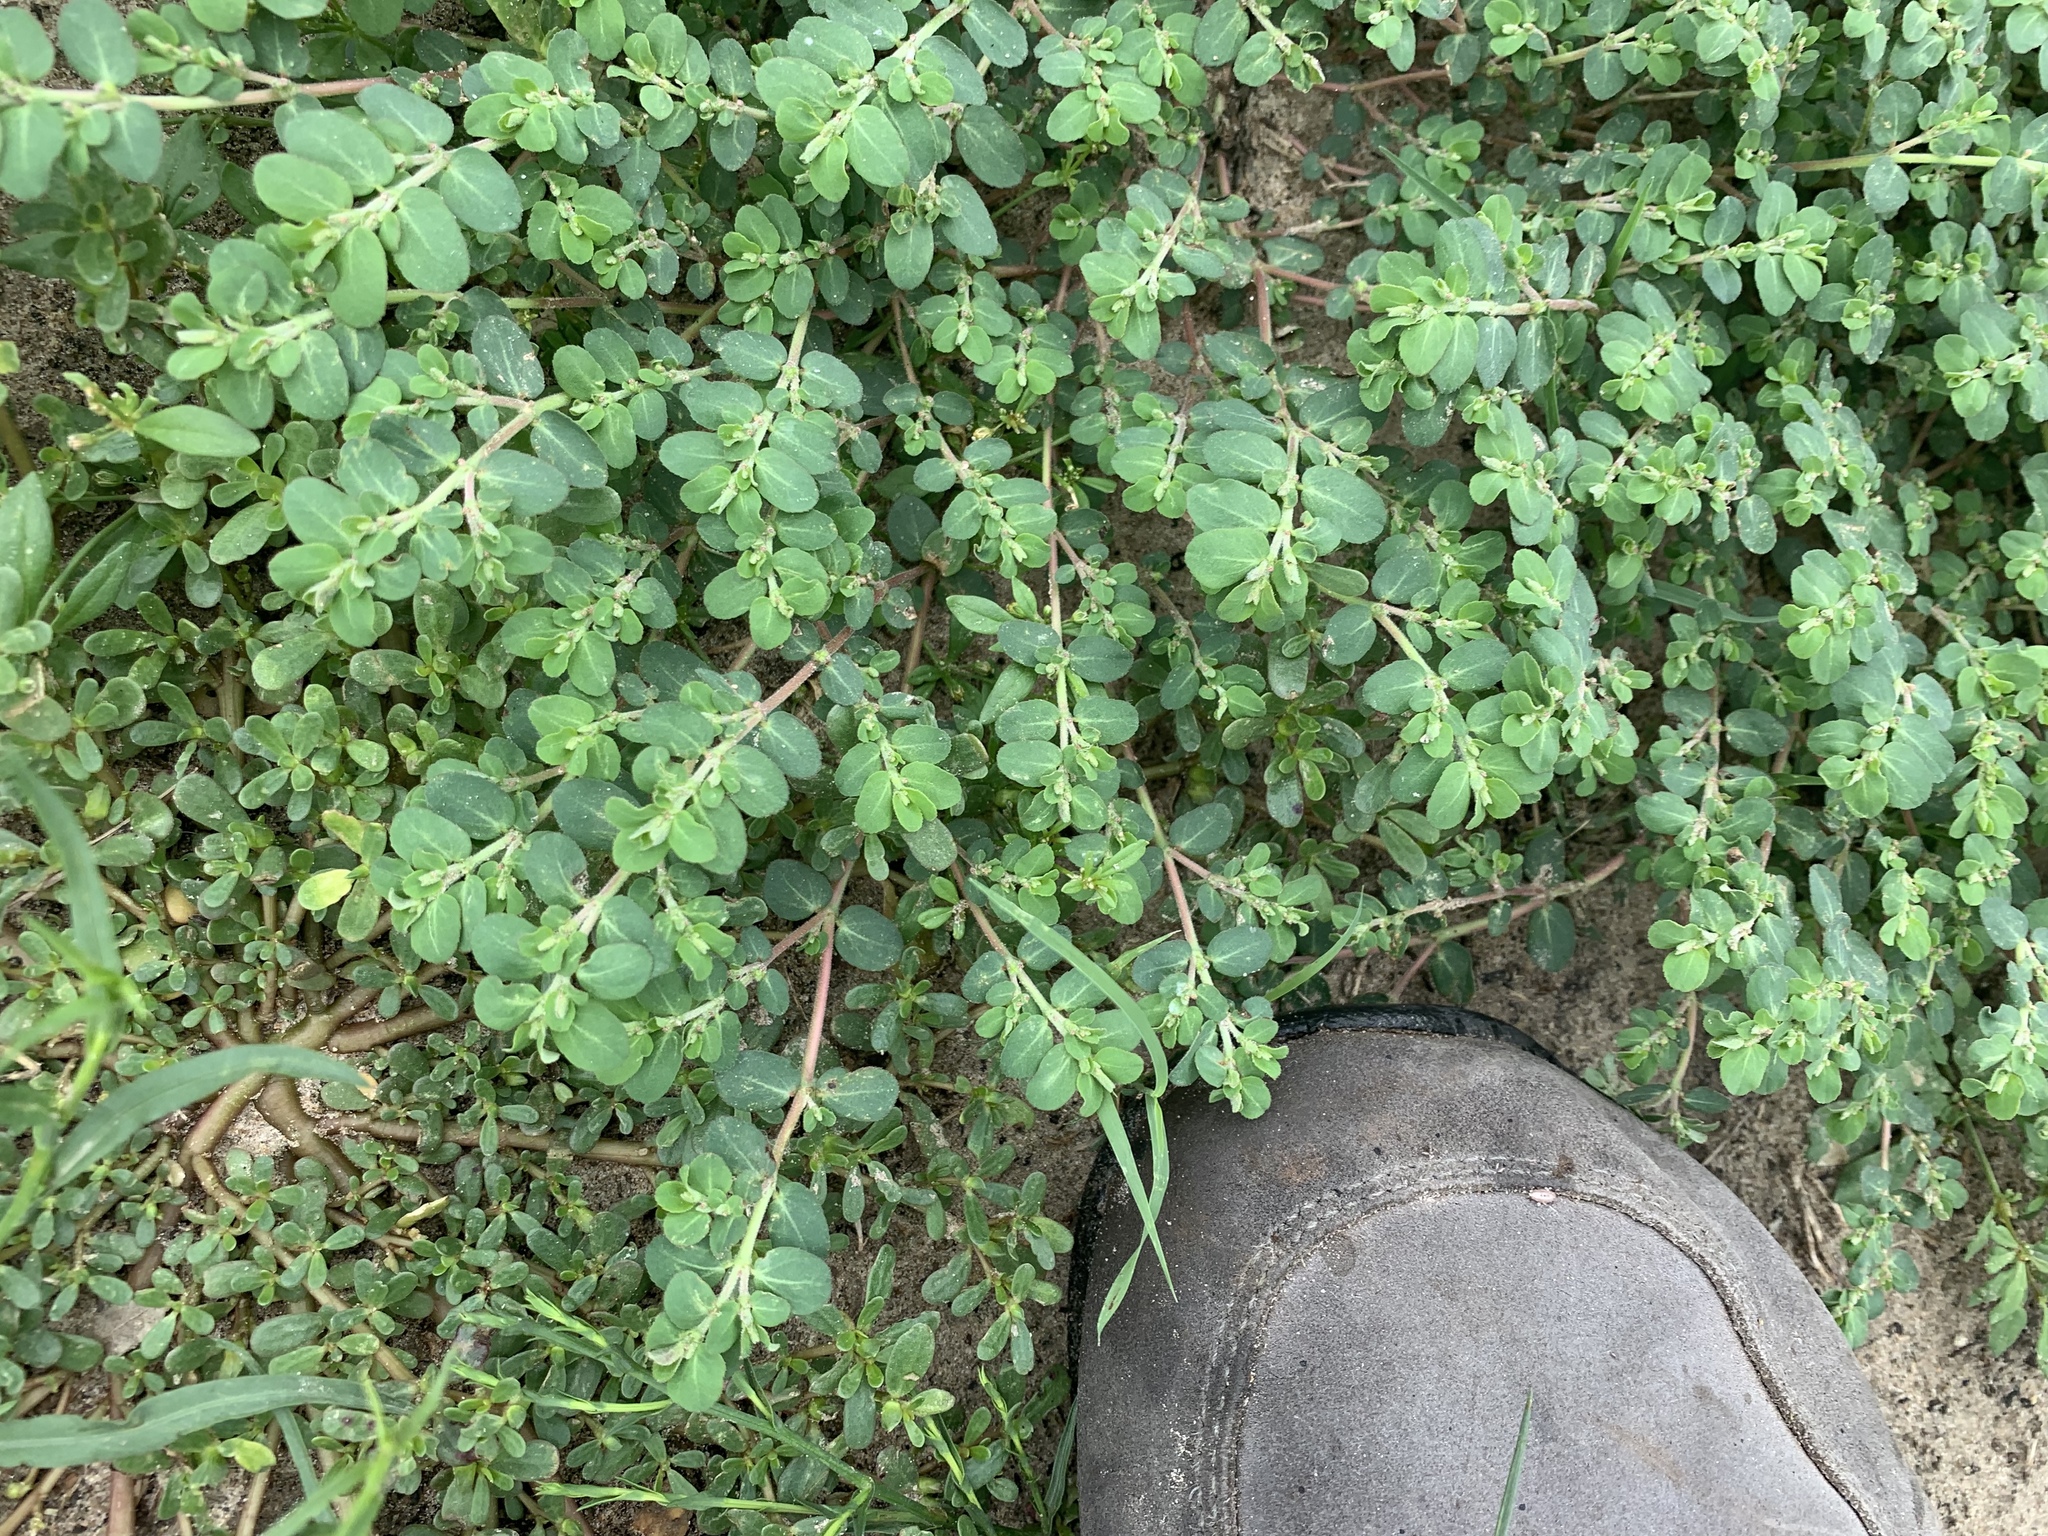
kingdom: Plantae
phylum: Tracheophyta
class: Magnoliopsida
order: Malpighiales
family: Euphorbiaceae
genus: Euphorbia
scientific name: Euphorbia prostrata
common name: Prostrate sandmat
